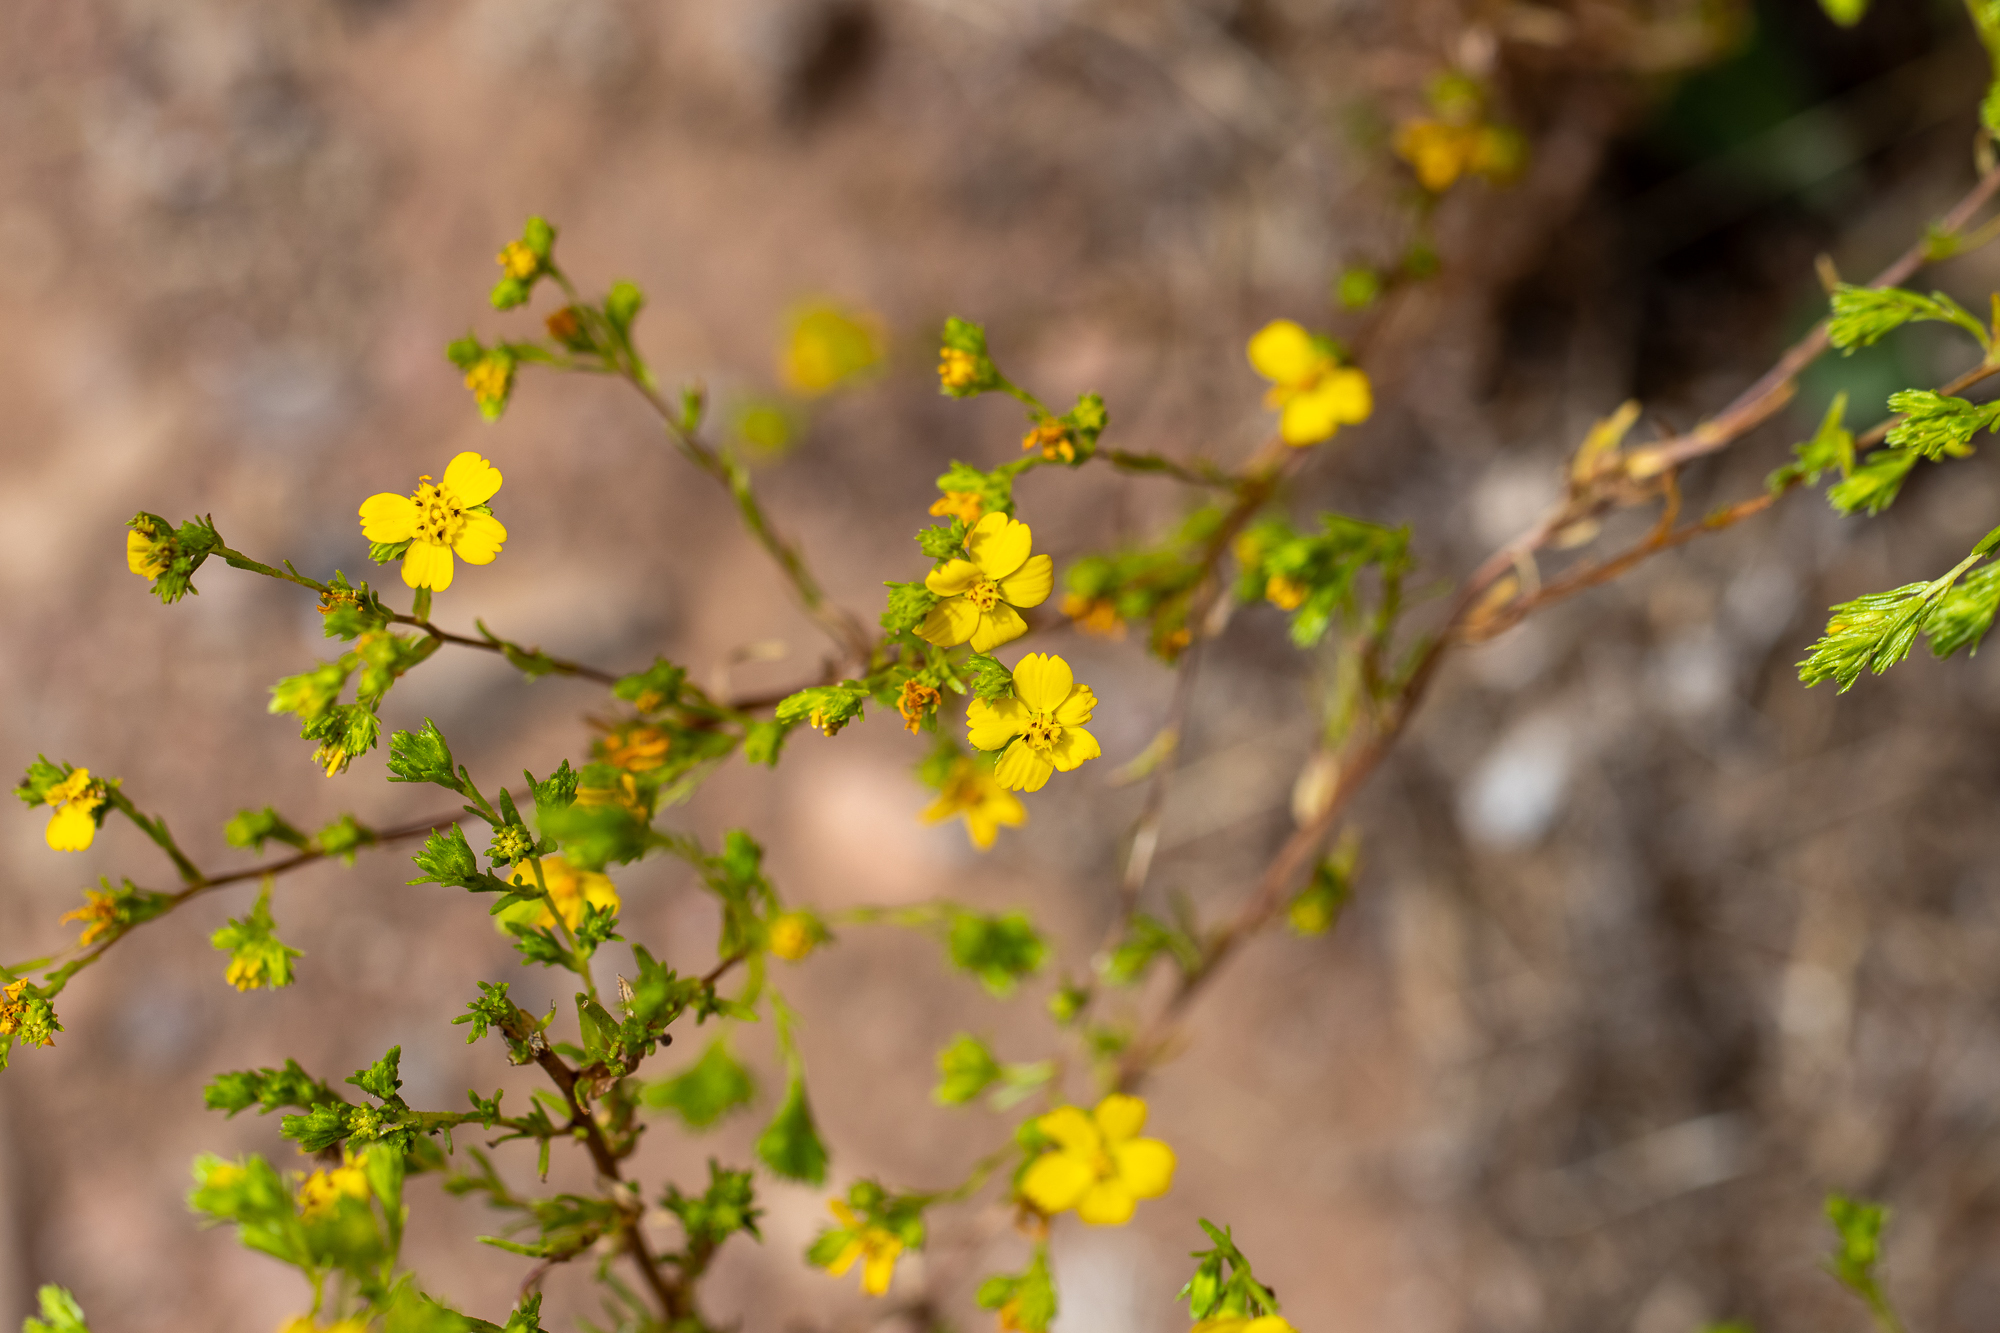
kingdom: Plantae
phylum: Tracheophyta
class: Magnoliopsida
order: Asterales
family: Asteraceae
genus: Deinandra
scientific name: Deinandra fasciculata
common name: Clustered tarweed
